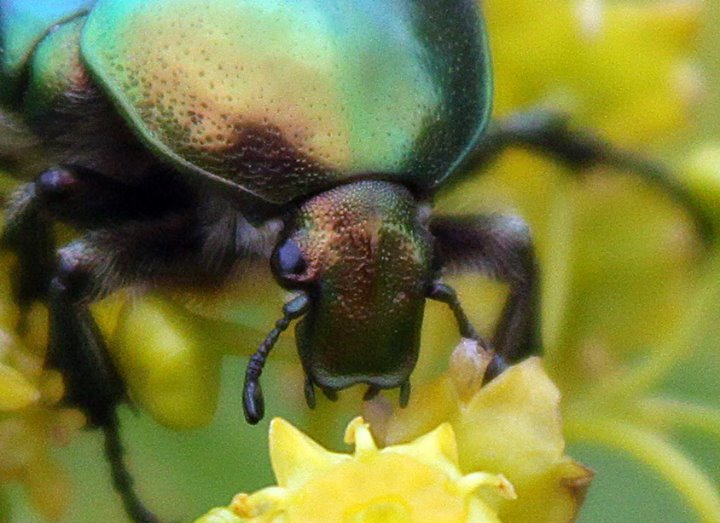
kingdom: Animalia
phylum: Arthropoda
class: Insecta
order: Coleoptera
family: Scarabaeidae
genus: Cetonia
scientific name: Cetonia aurata
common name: Rose chafer
